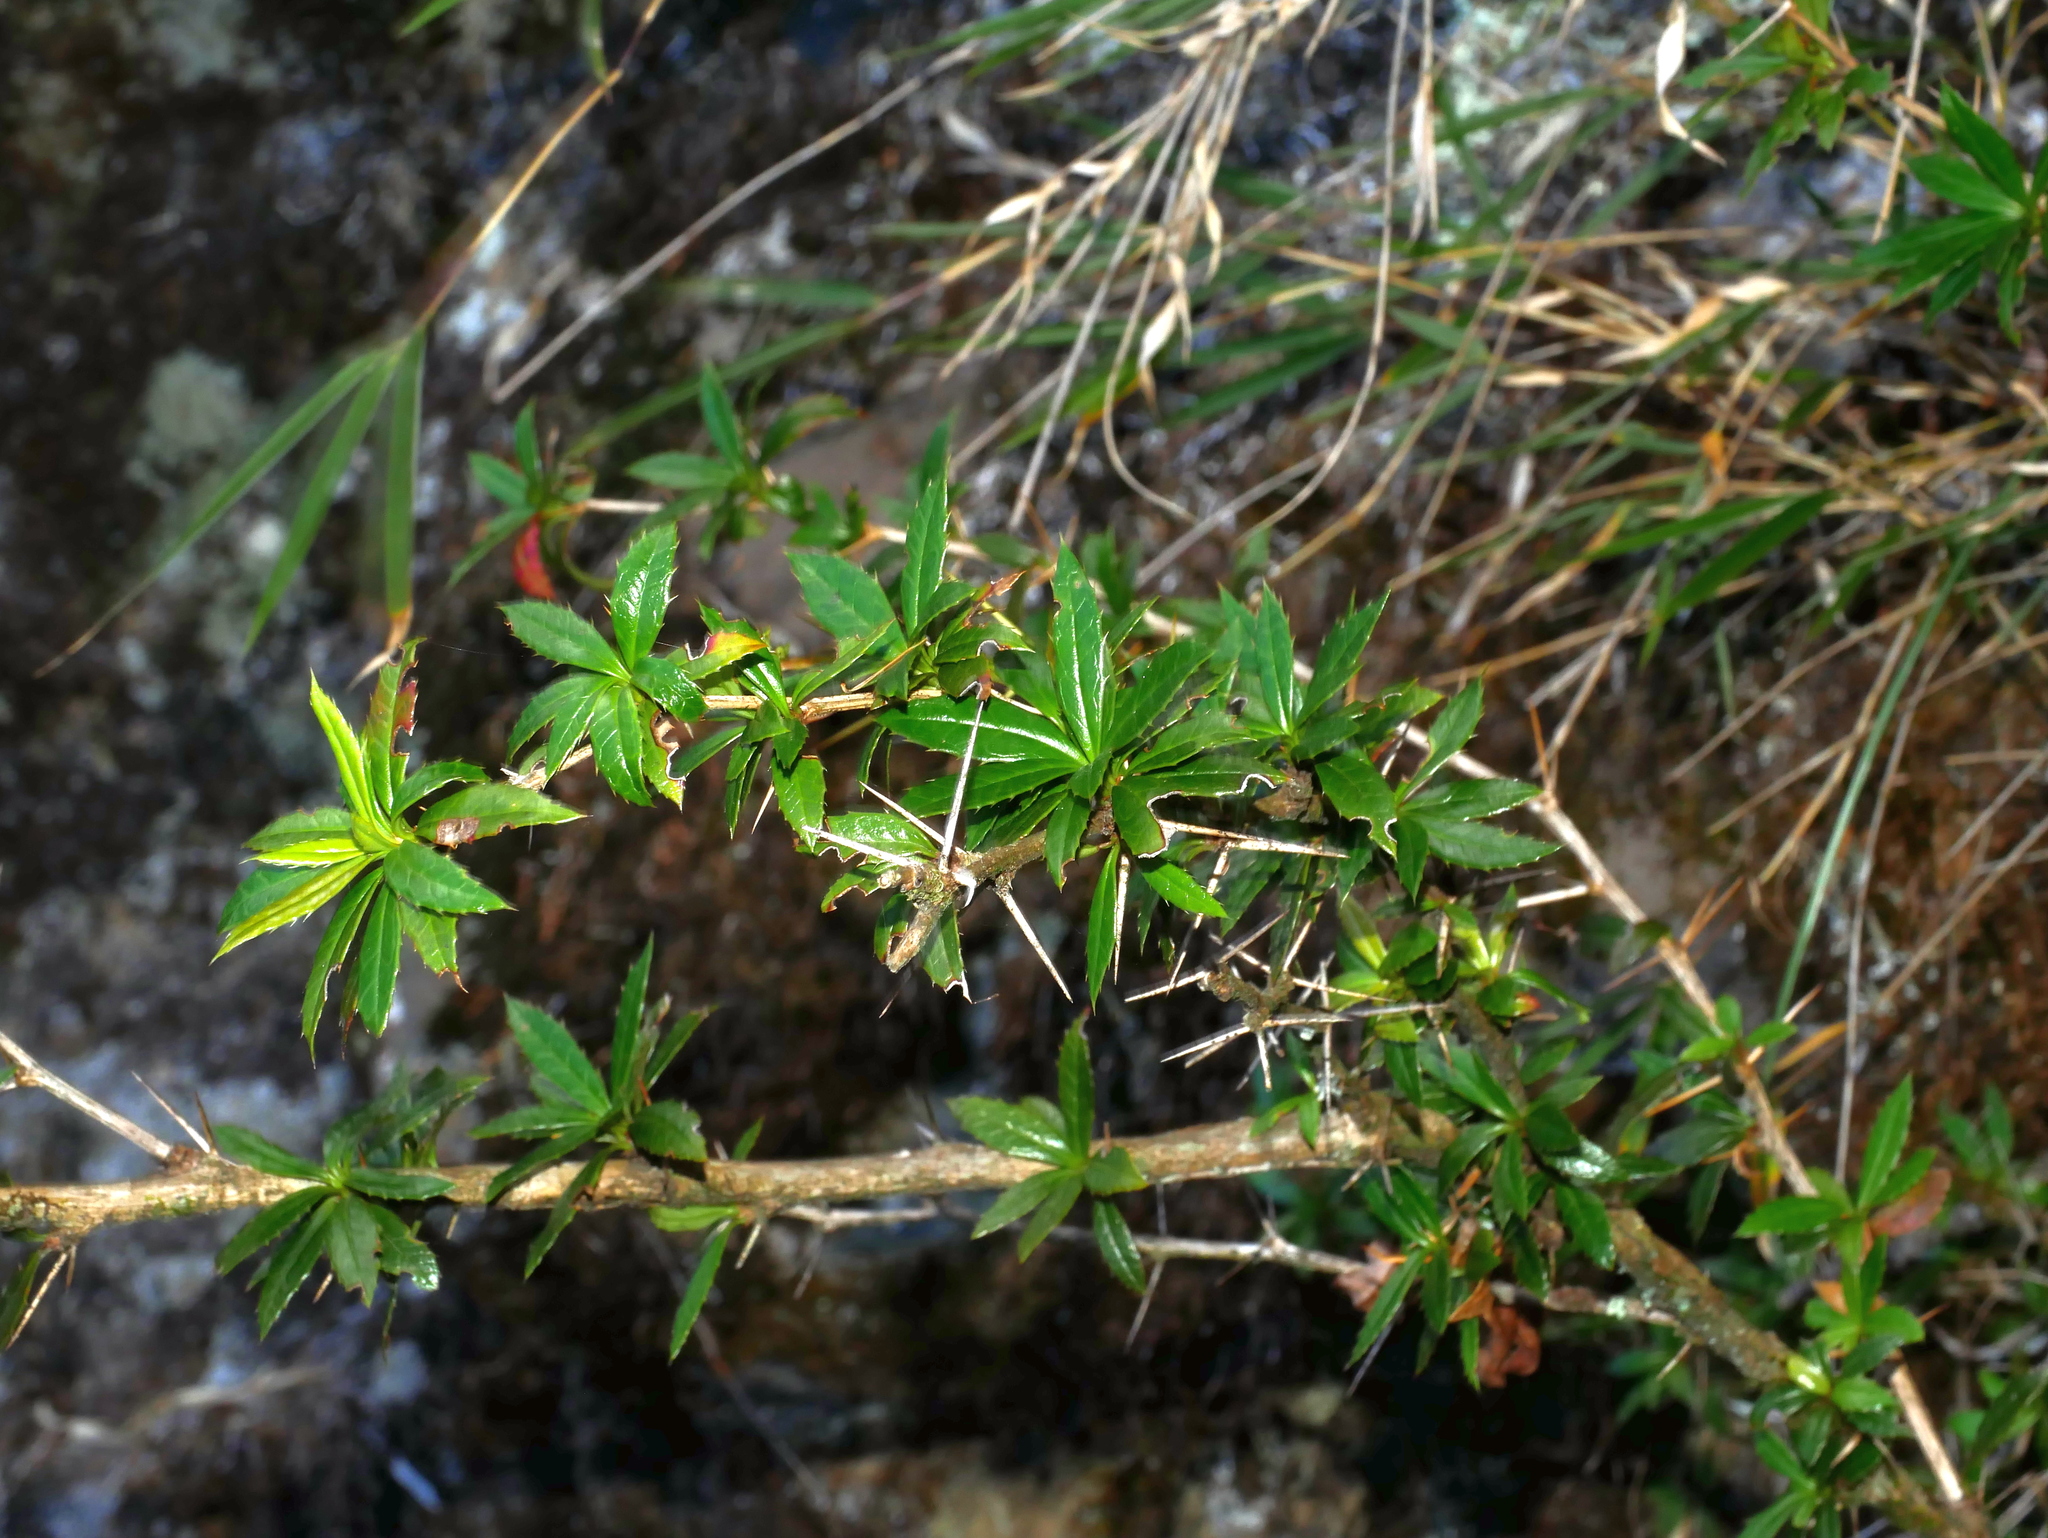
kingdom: Plantae
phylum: Tracheophyta
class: Magnoliopsida
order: Ranunculales
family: Berberidaceae
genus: Berberis
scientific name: Berberis kawakamii
